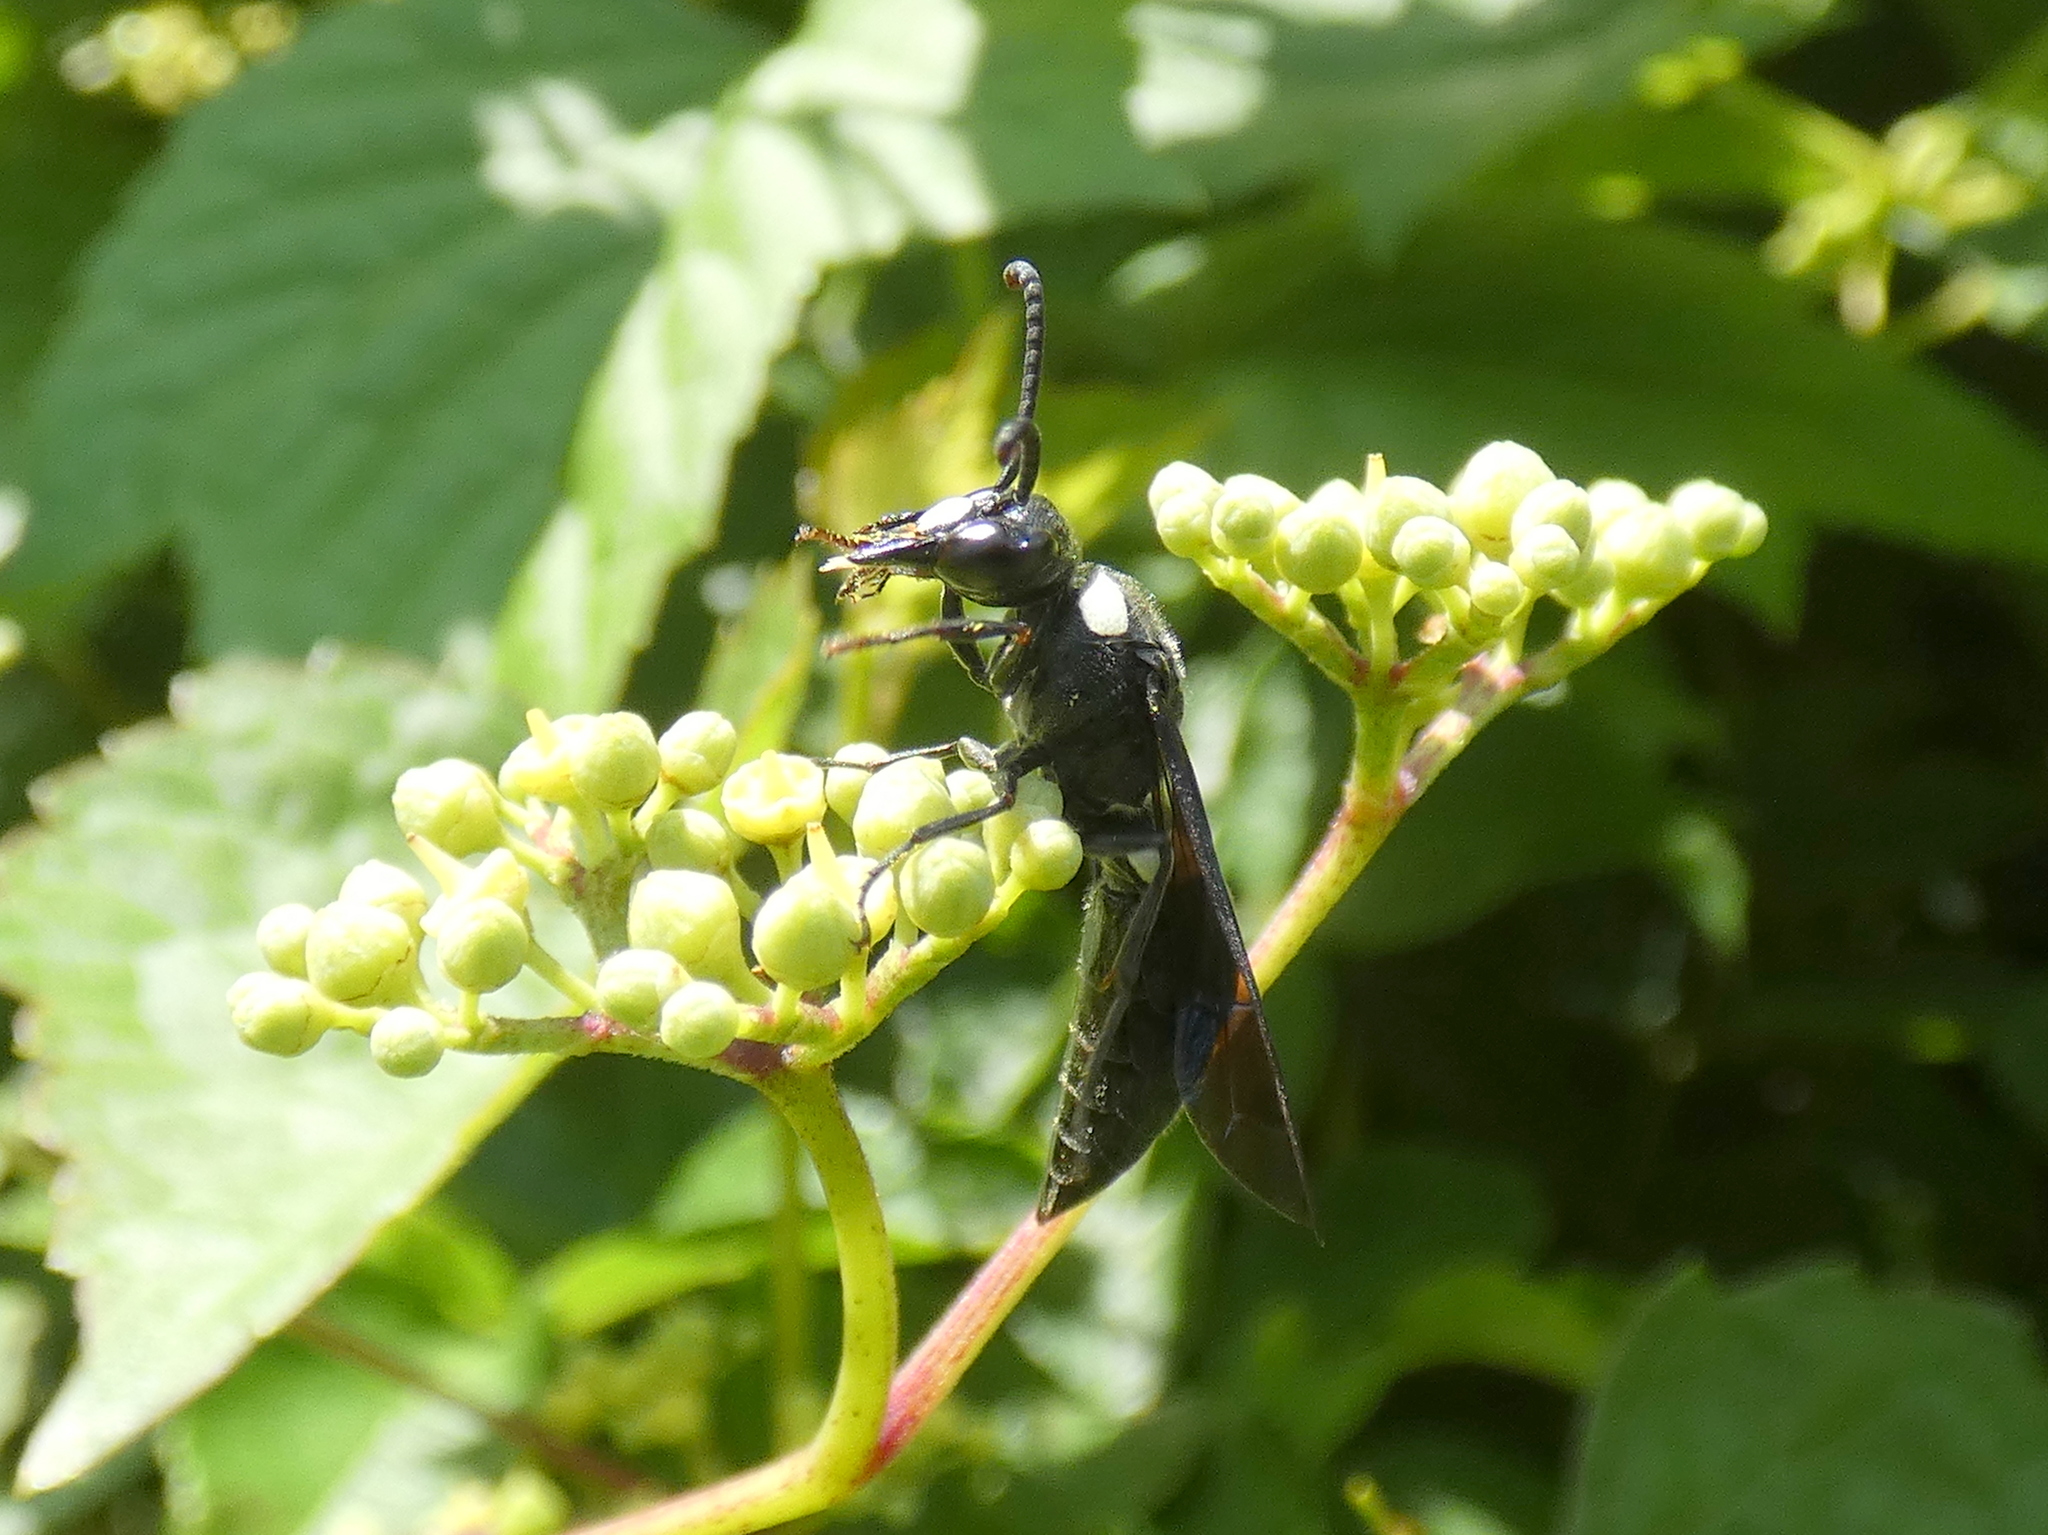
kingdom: Animalia
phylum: Arthropoda
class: Insecta
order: Hymenoptera
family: Eumenidae
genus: Monobia
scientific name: Monobia quadridens
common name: Four-toothed mason wasp
